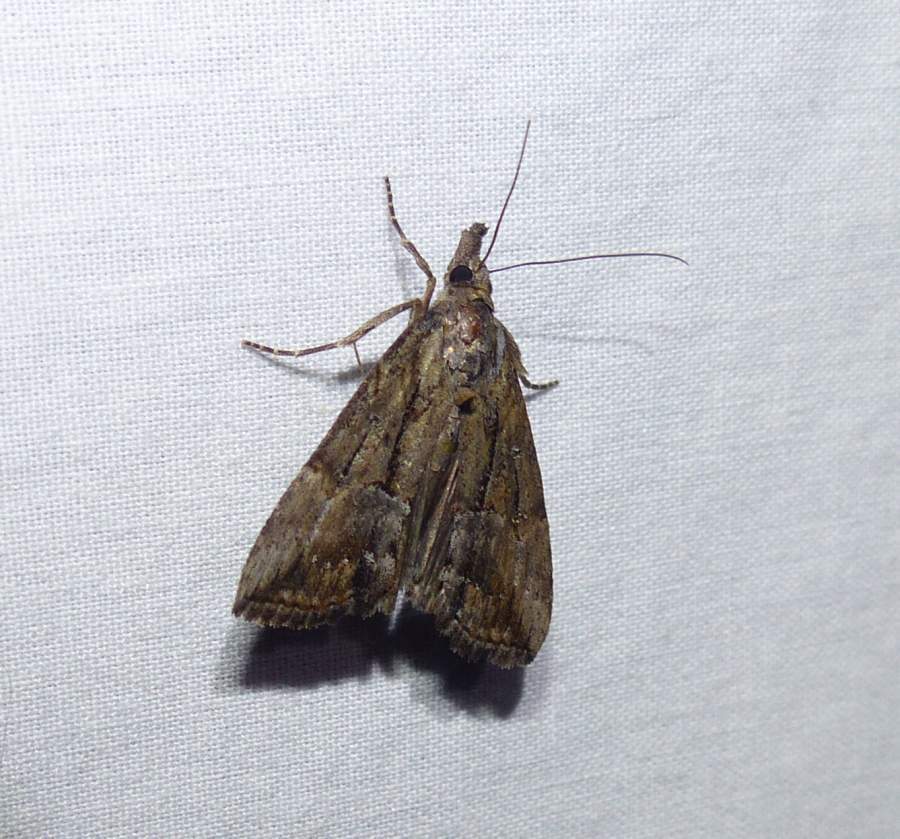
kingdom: Animalia
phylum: Arthropoda
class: Insecta
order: Lepidoptera
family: Erebidae
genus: Hypena
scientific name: Hypena scabra
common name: Green cloverworm
